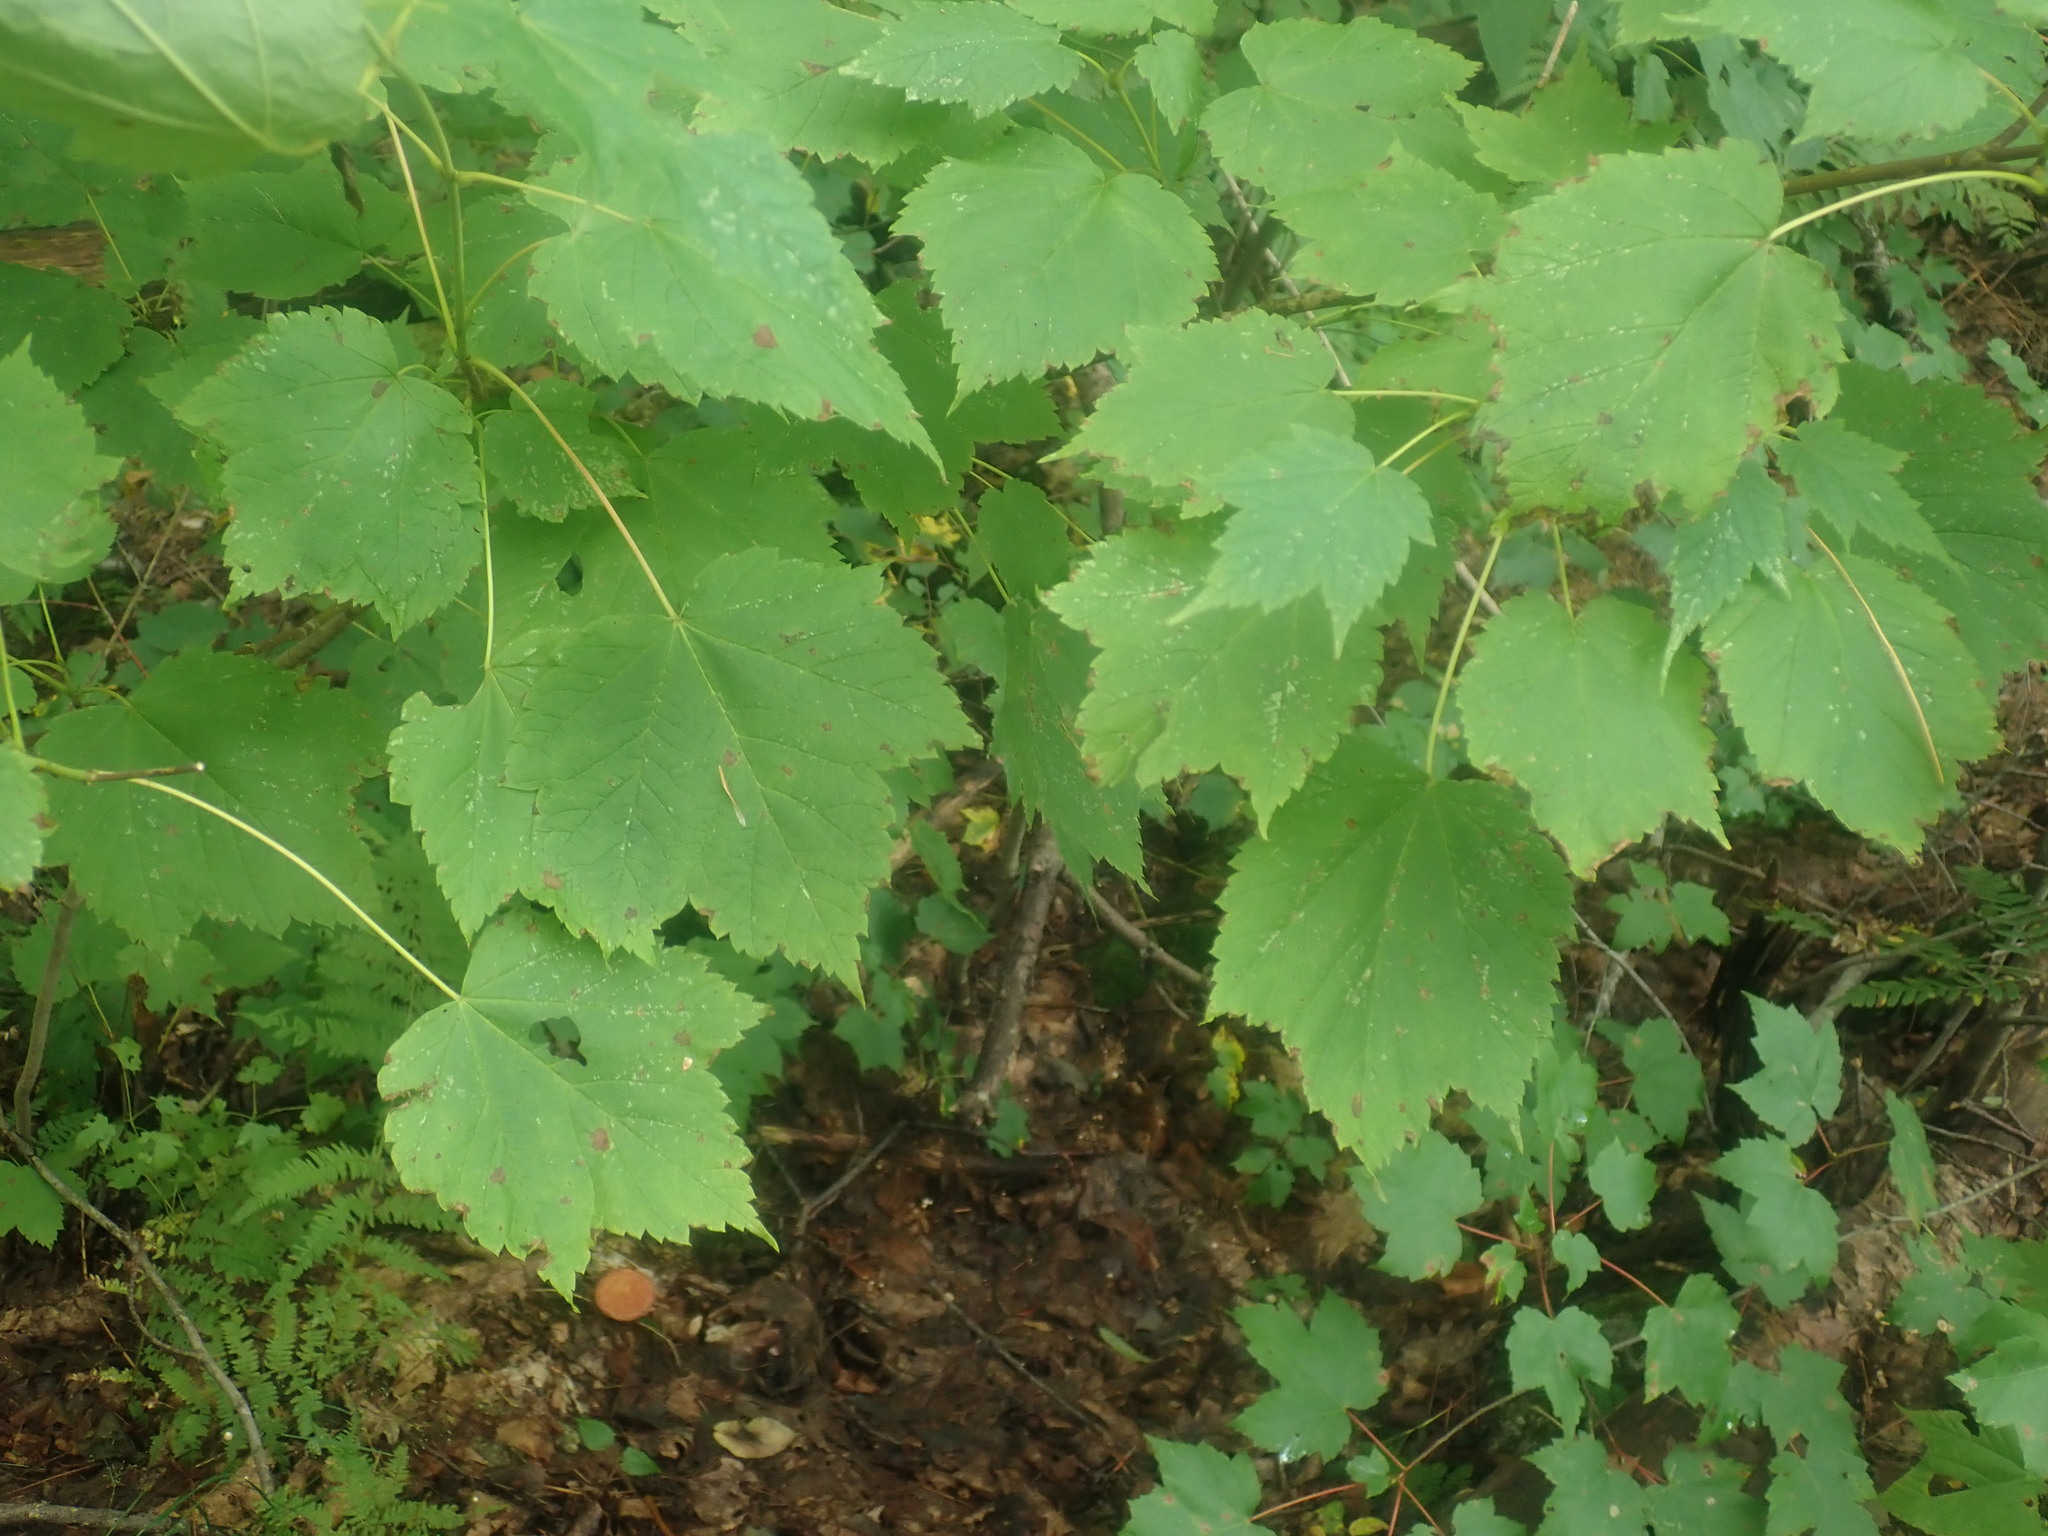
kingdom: Plantae
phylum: Tracheophyta
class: Magnoliopsida
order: Sapindales
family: Sapindaceae
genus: Acer
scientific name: Acer spicatum
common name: Mountain maple
